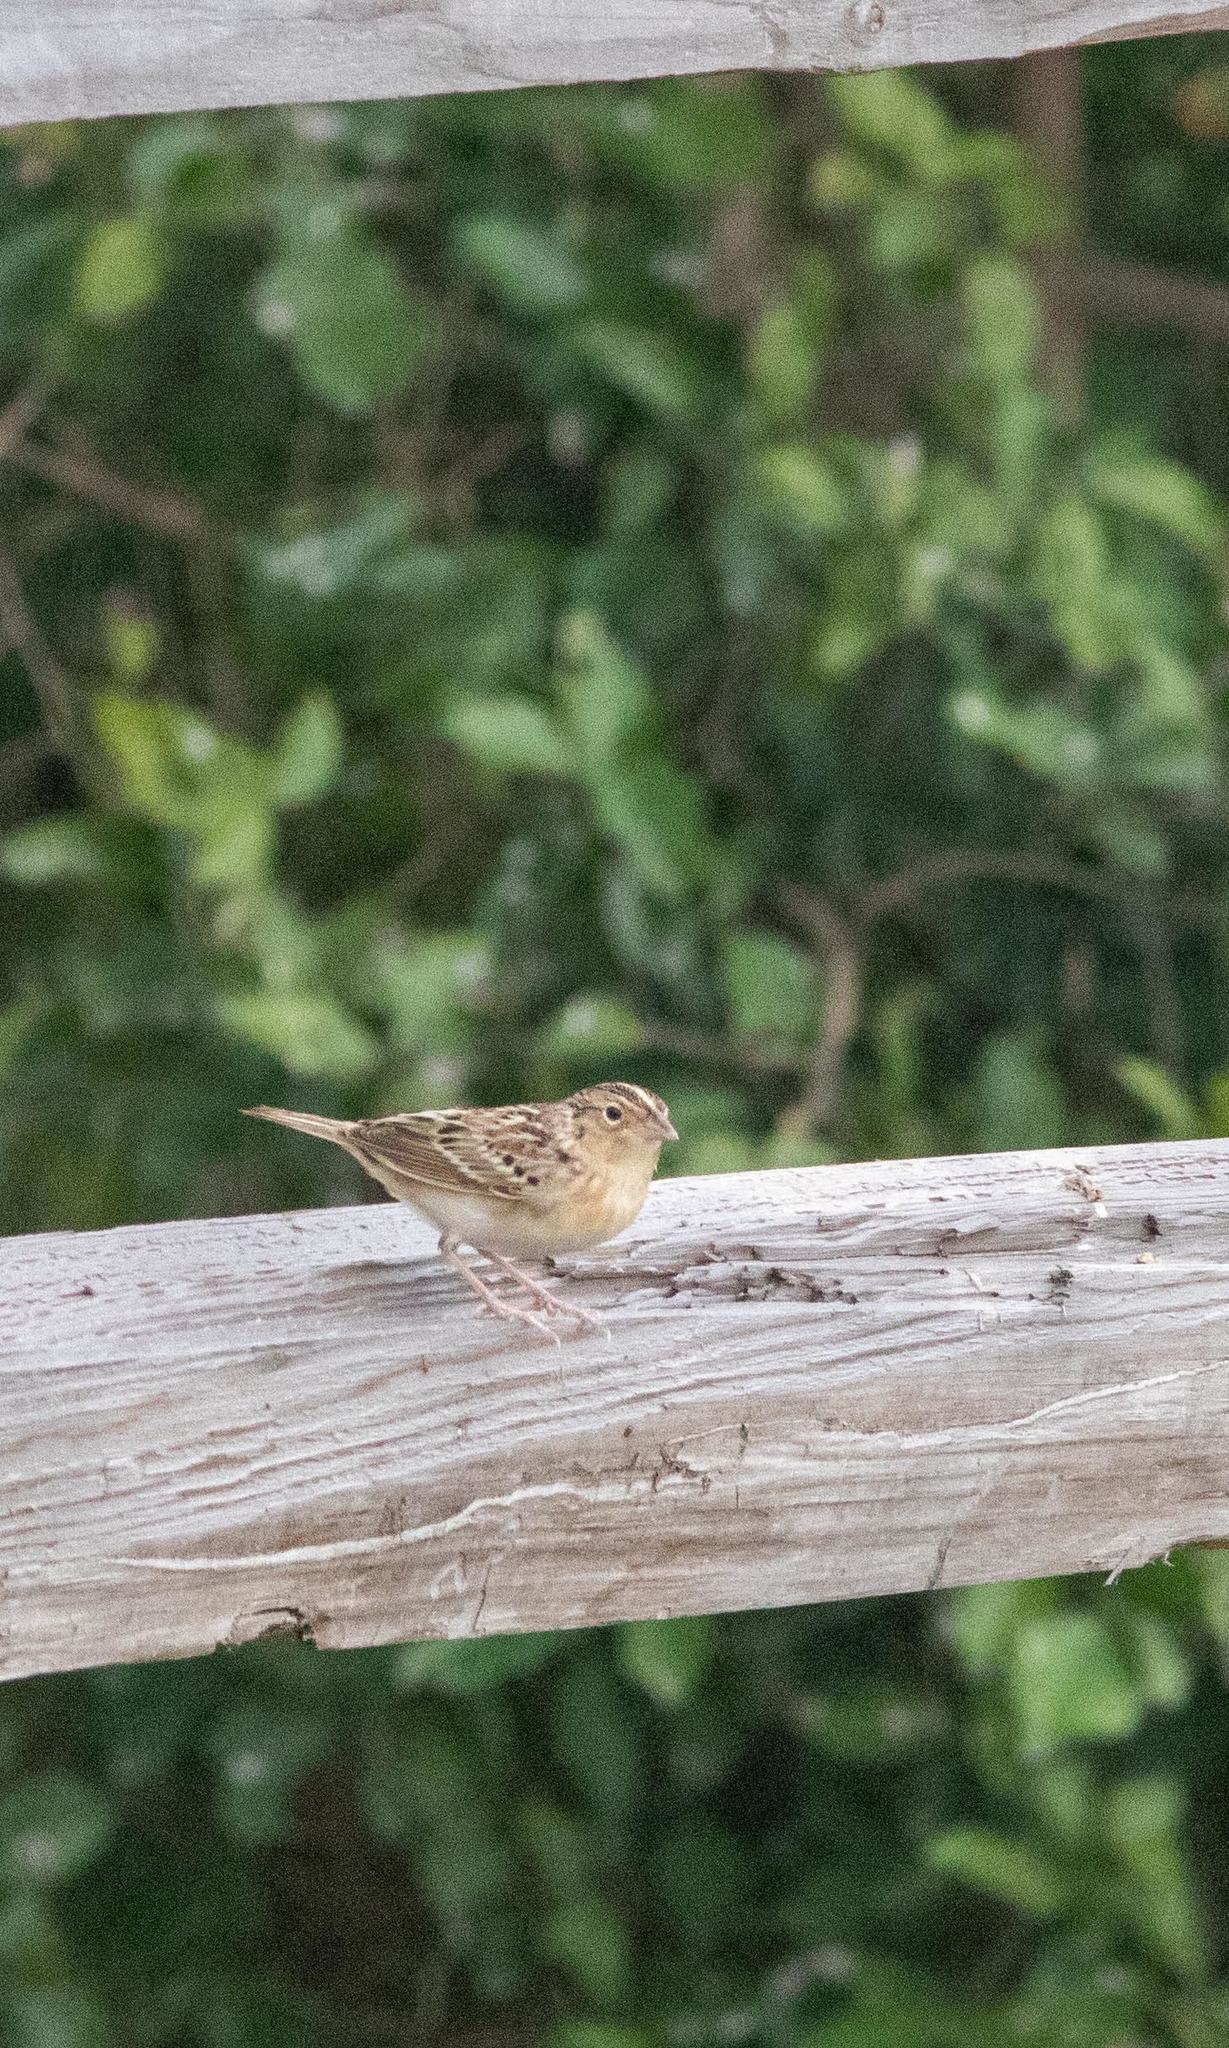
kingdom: Animalia
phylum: Chordata
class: Aves
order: Passeriformes
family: Passerellidae
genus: Ammodramus
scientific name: Ammodramus savannarum
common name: Grasshopper sparrow
